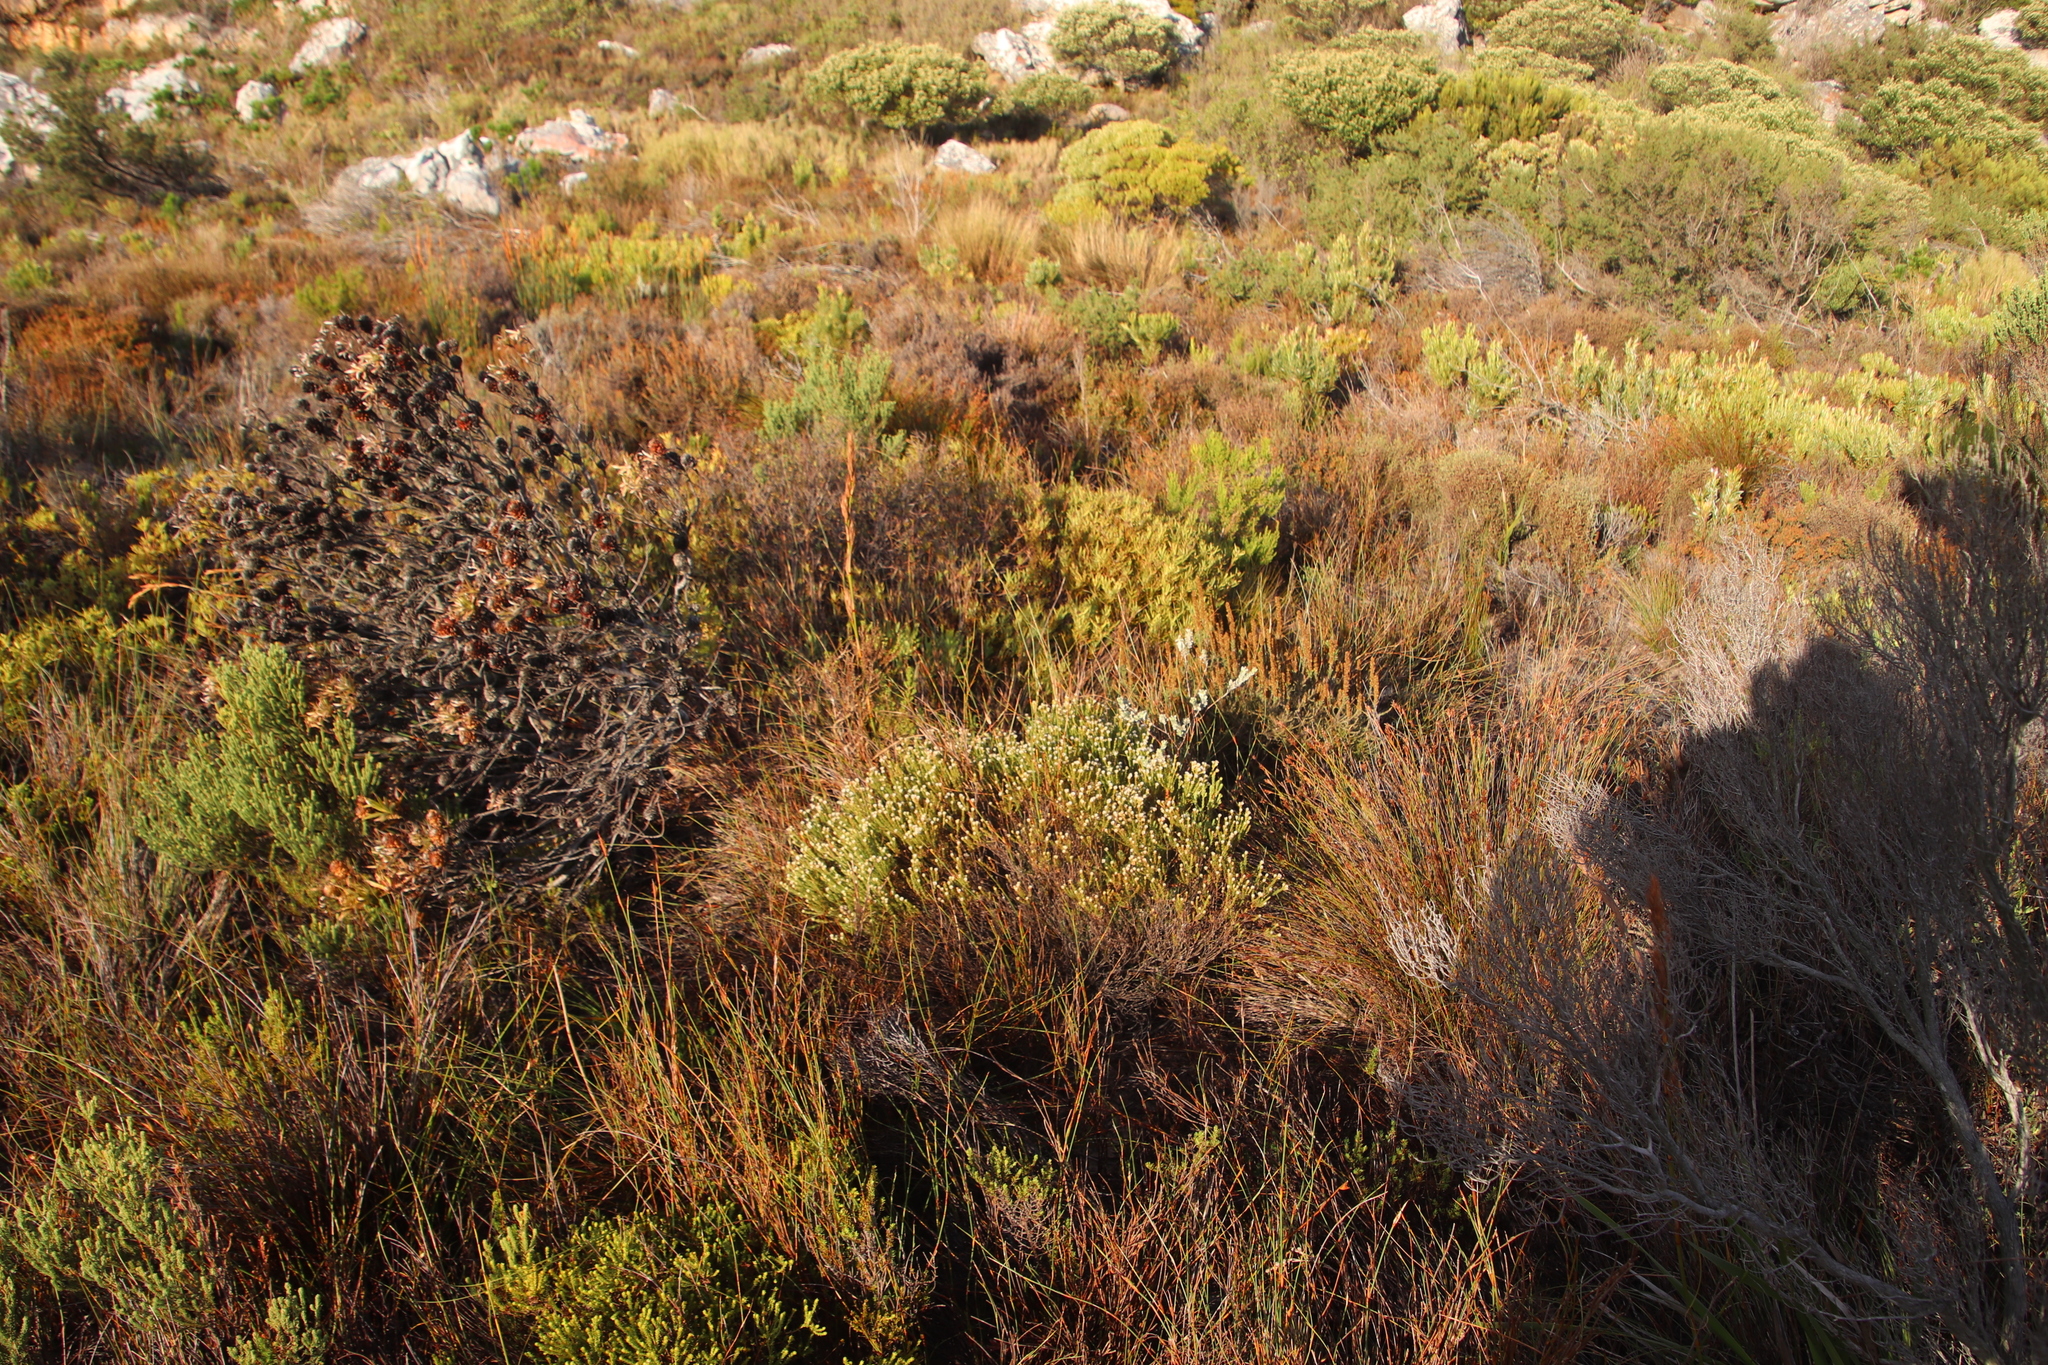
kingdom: Plantae
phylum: Tracheophyta
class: Magnoliopsida
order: Bruniales
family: Bruniaceae
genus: Staavia
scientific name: Staavia radiata
